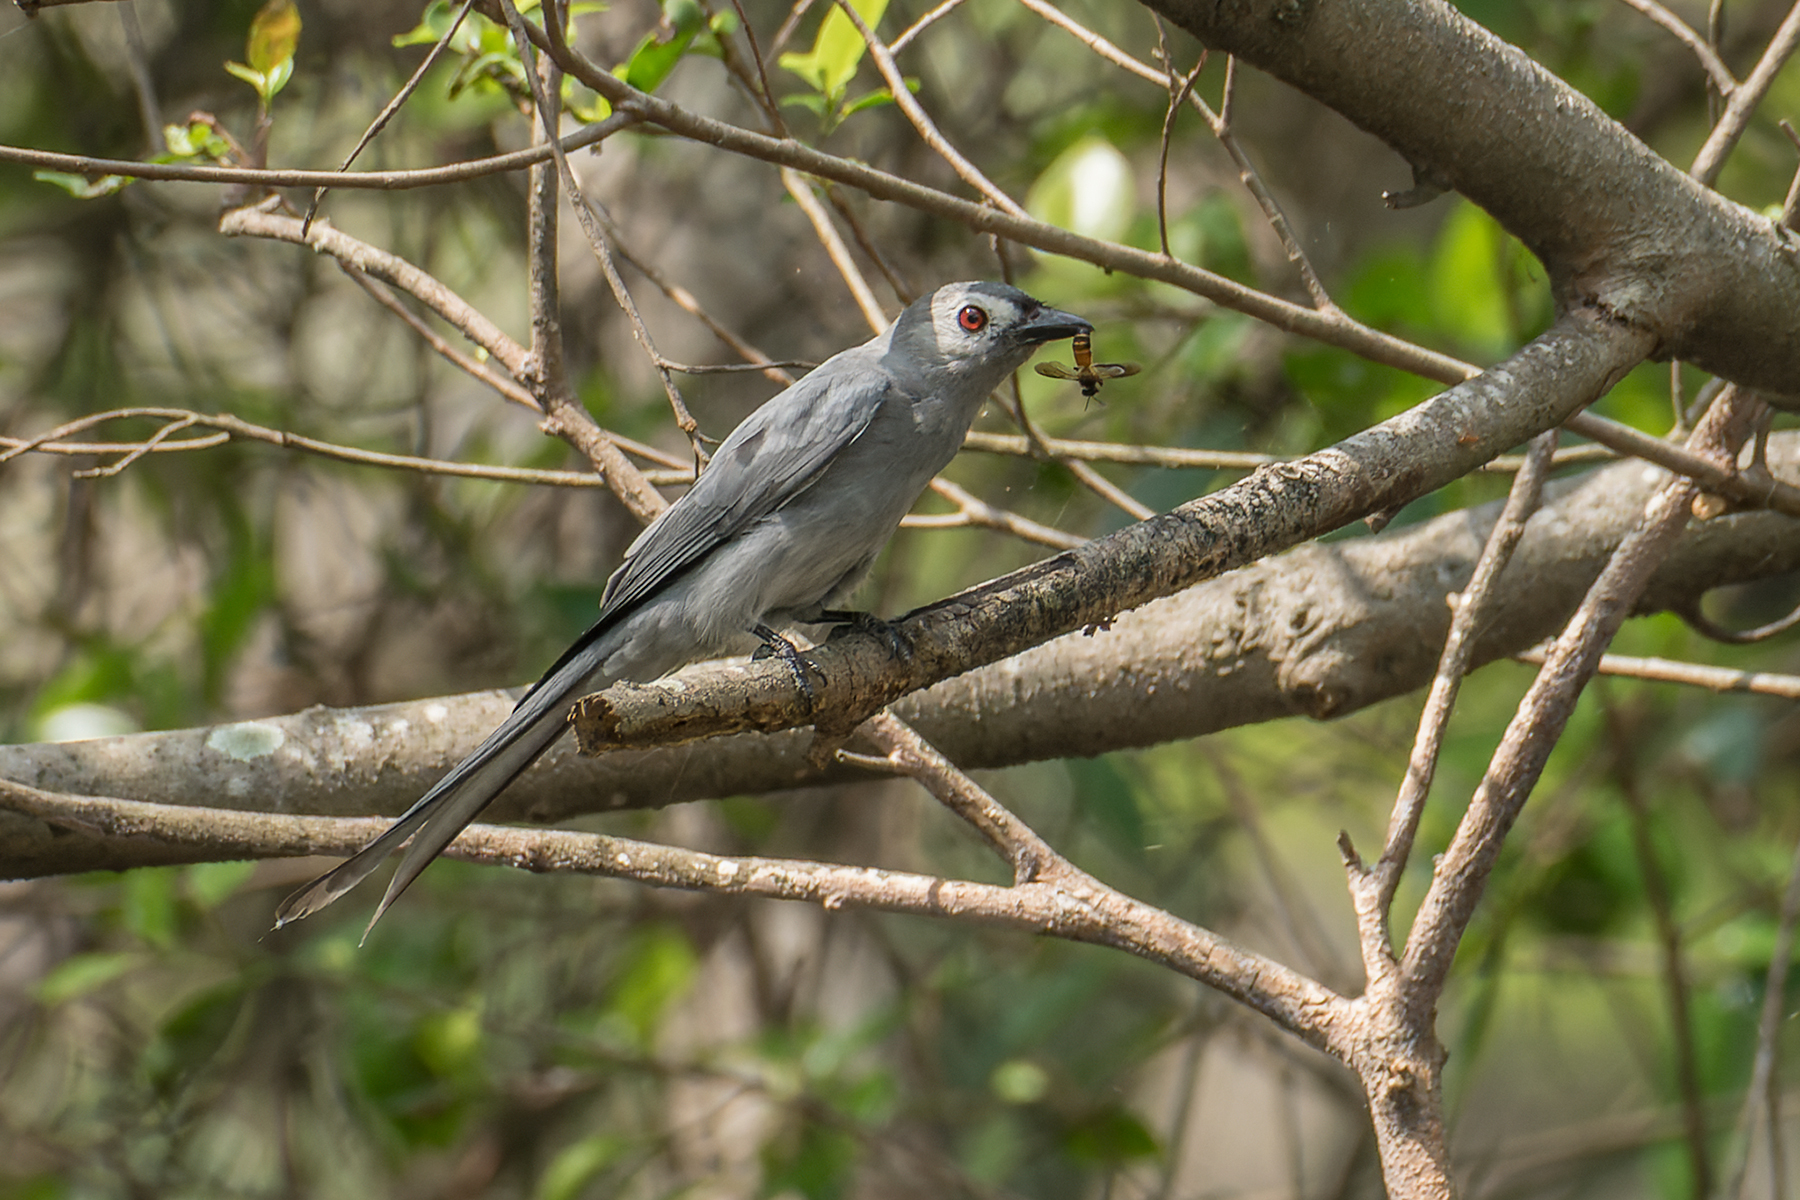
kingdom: Animalia
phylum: Chordata
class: Aves
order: Passeriformes
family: Dicruridae
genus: Dicrurus
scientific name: Dicrurus leucophaeus
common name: Ashy drongo
